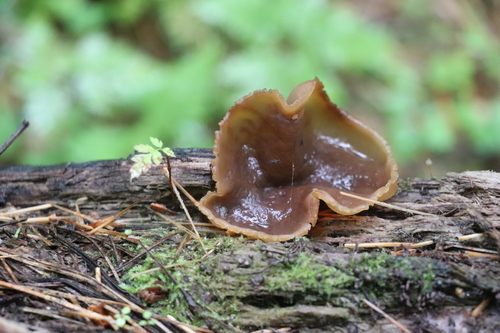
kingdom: Fungi
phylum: Ascomycota
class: Pezizomycetes
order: Pezizales
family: Pezizaceae
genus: Peziza
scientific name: Peziza varia
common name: Layered cup
